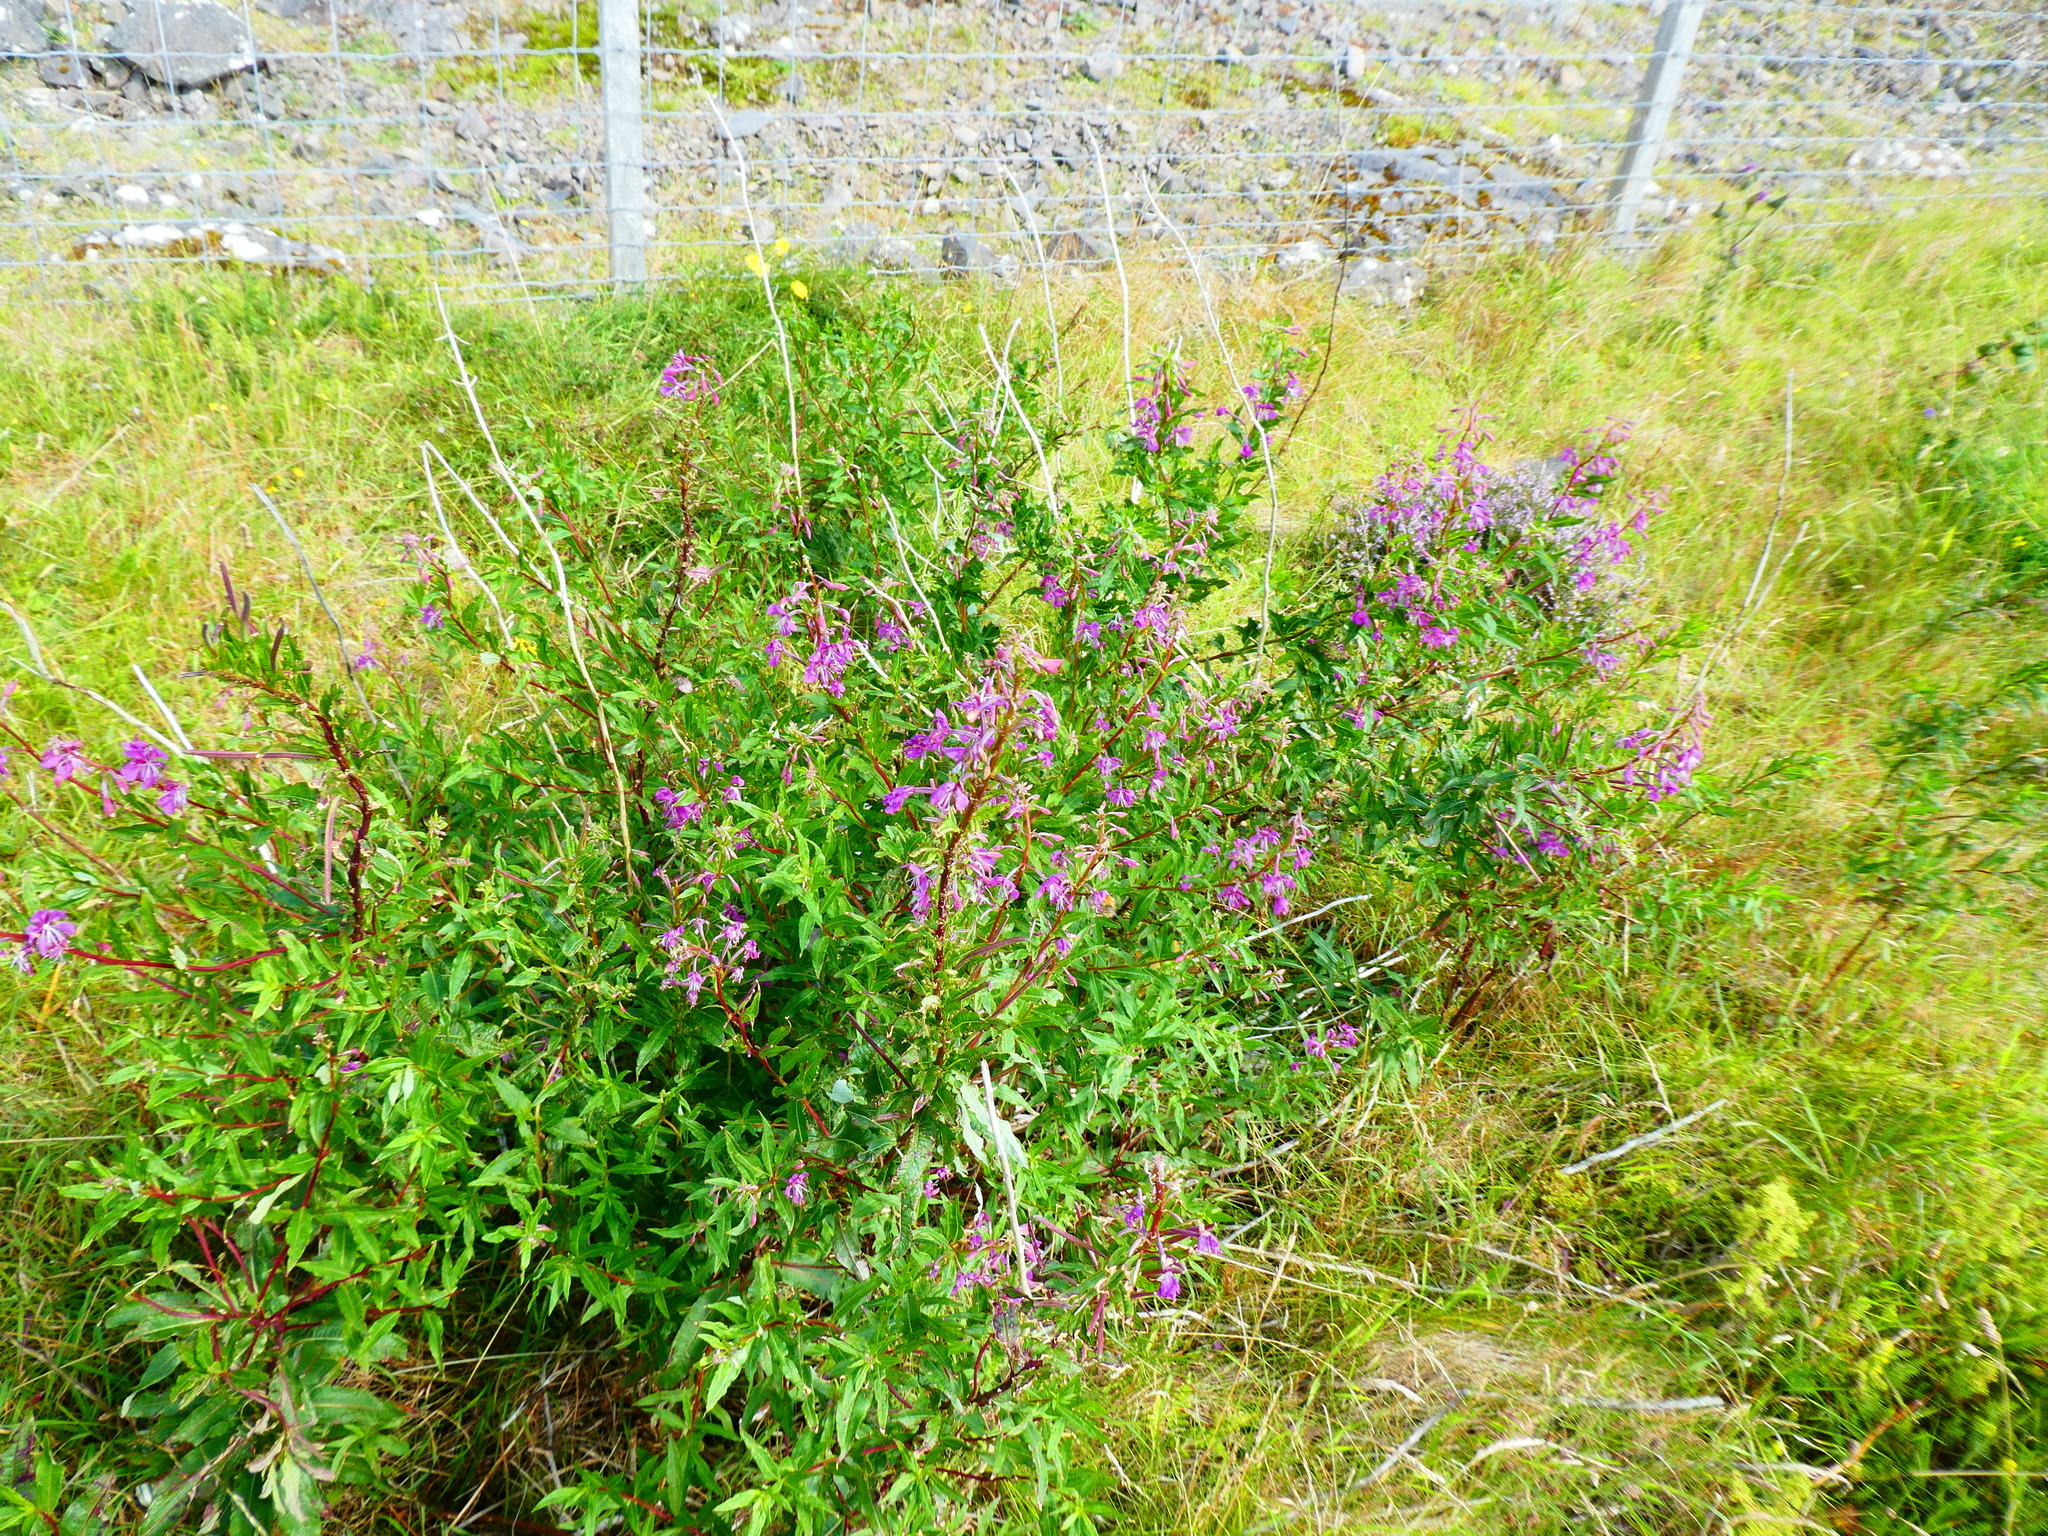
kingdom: Plantae
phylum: Tracheophyta
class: Magnoliopsida
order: Myrtales
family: Onagraceae
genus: Chamaenerion
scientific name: Chamaenerion angustifolium
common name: Fireweed
